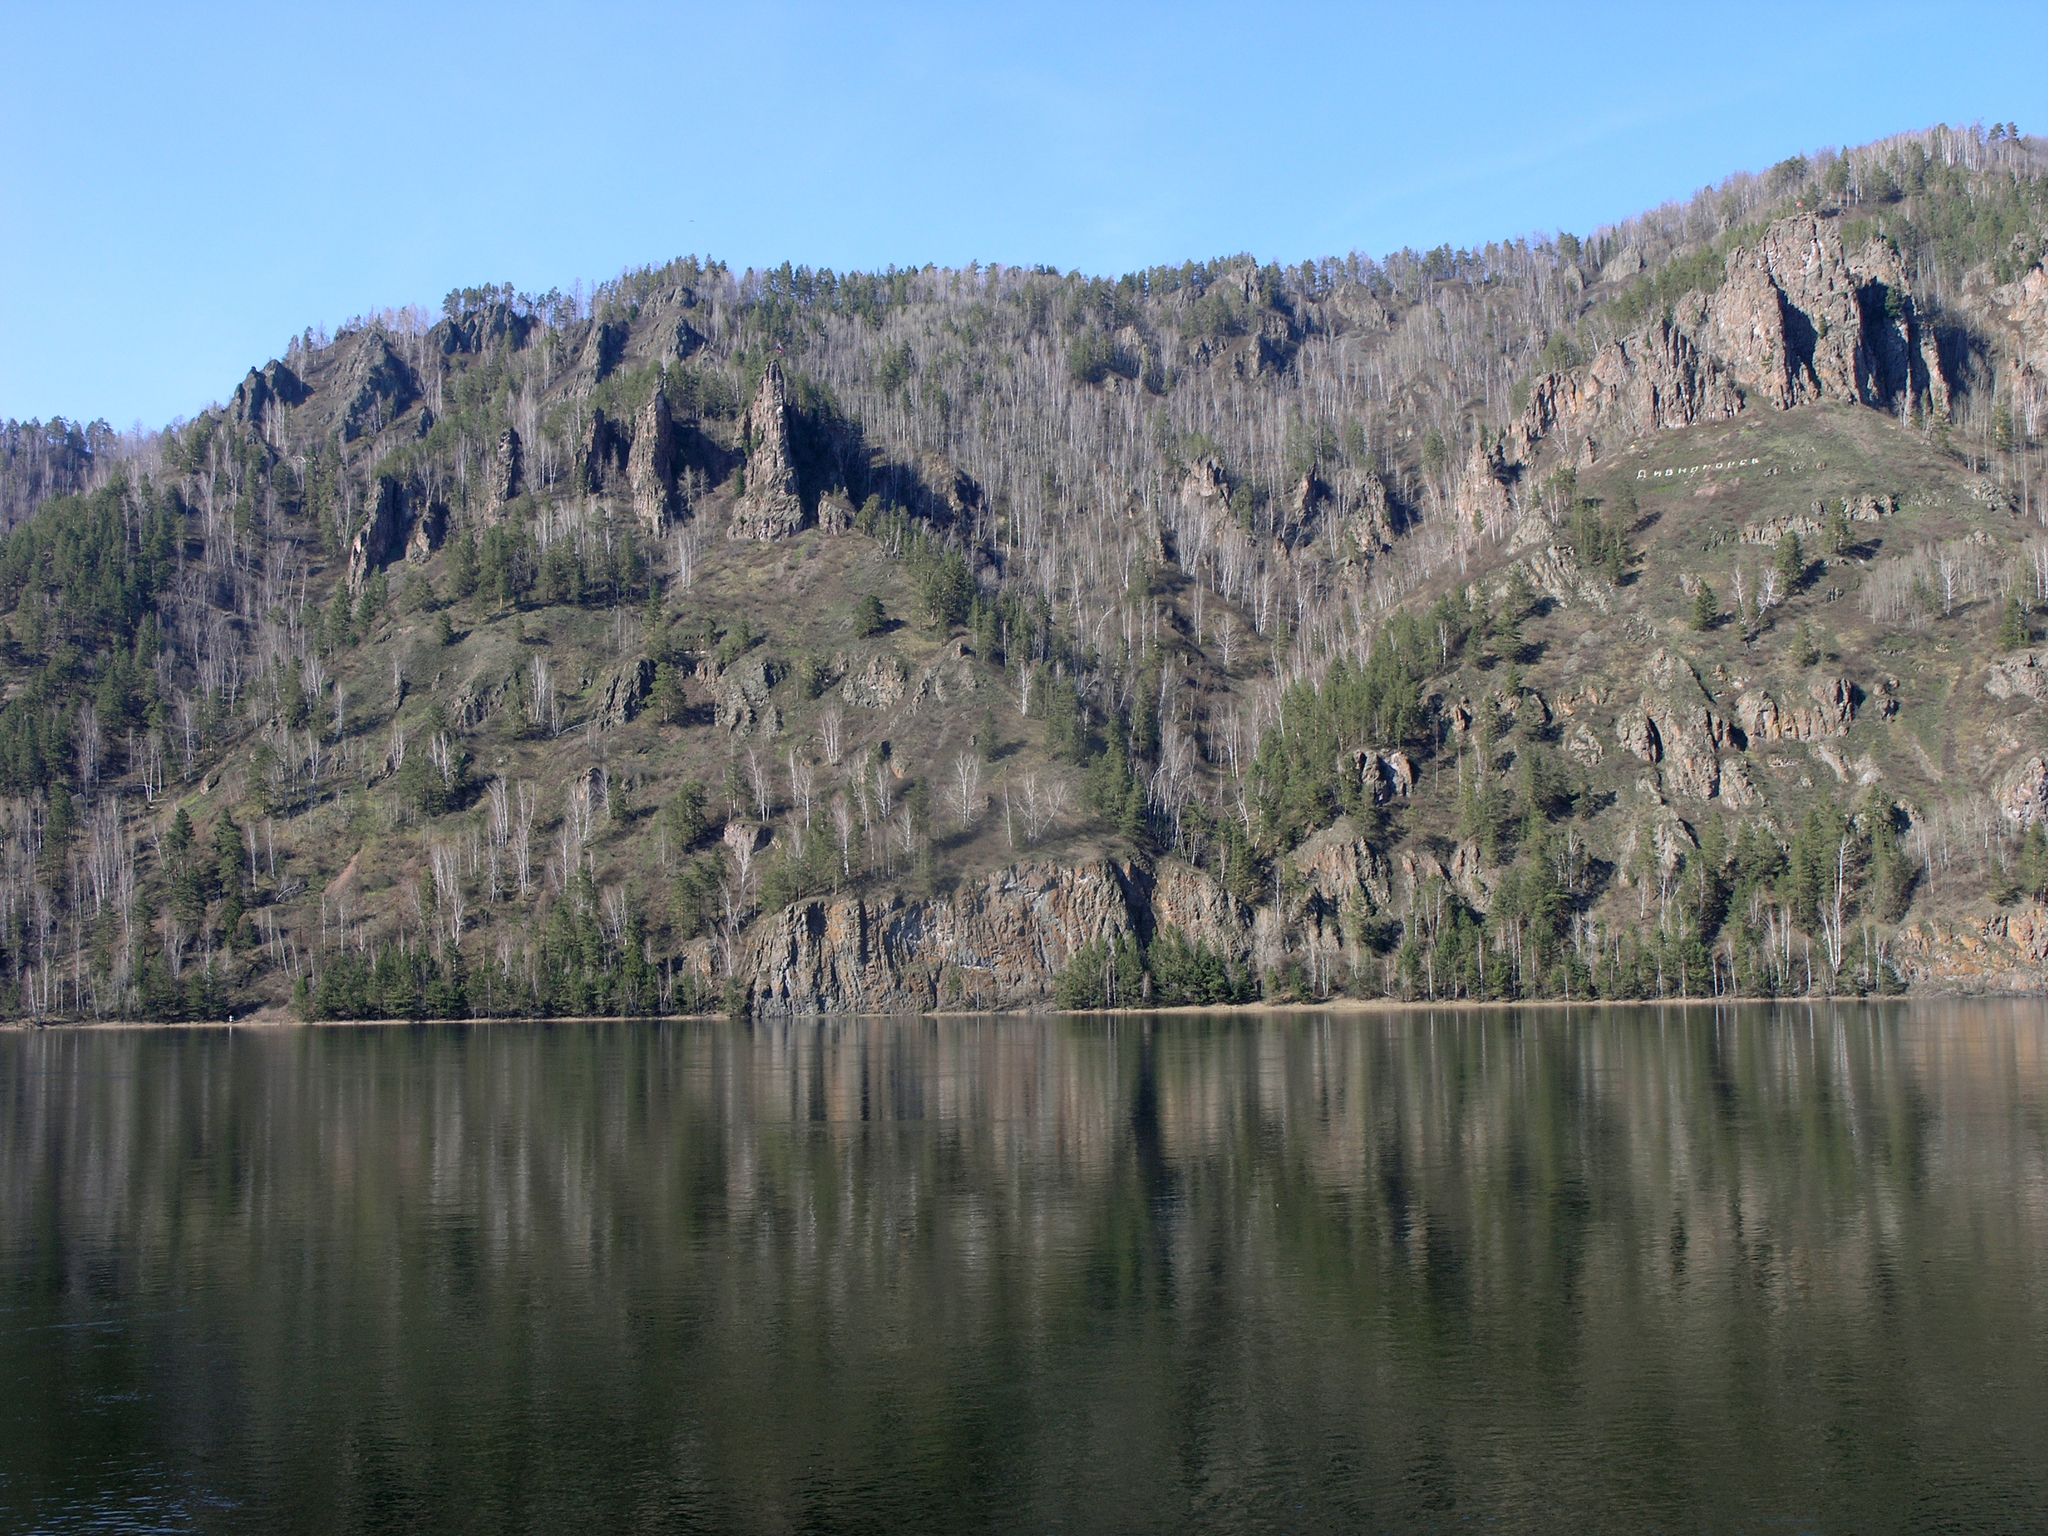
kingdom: Plantae
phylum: Tracheophyta
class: Magnoliopsida
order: Fagales
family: Betulaceae
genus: Betula
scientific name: Betula pendula
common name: Silver birch
